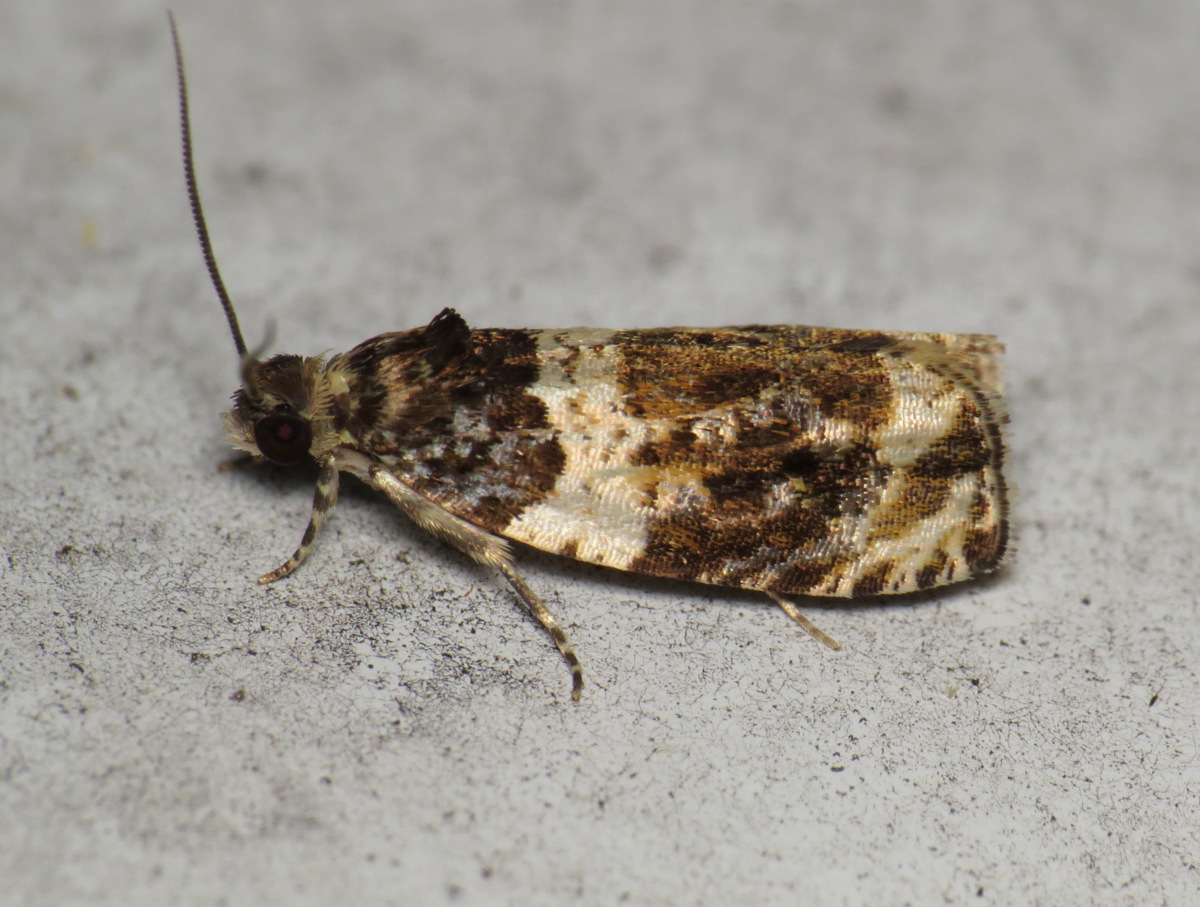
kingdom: Animalia
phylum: Arthropoda
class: Insecta
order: Lepidoptera
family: Tortricidae
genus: Olethreutes
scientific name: Olethreutes fasciatana
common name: Banded olethreutes moth
